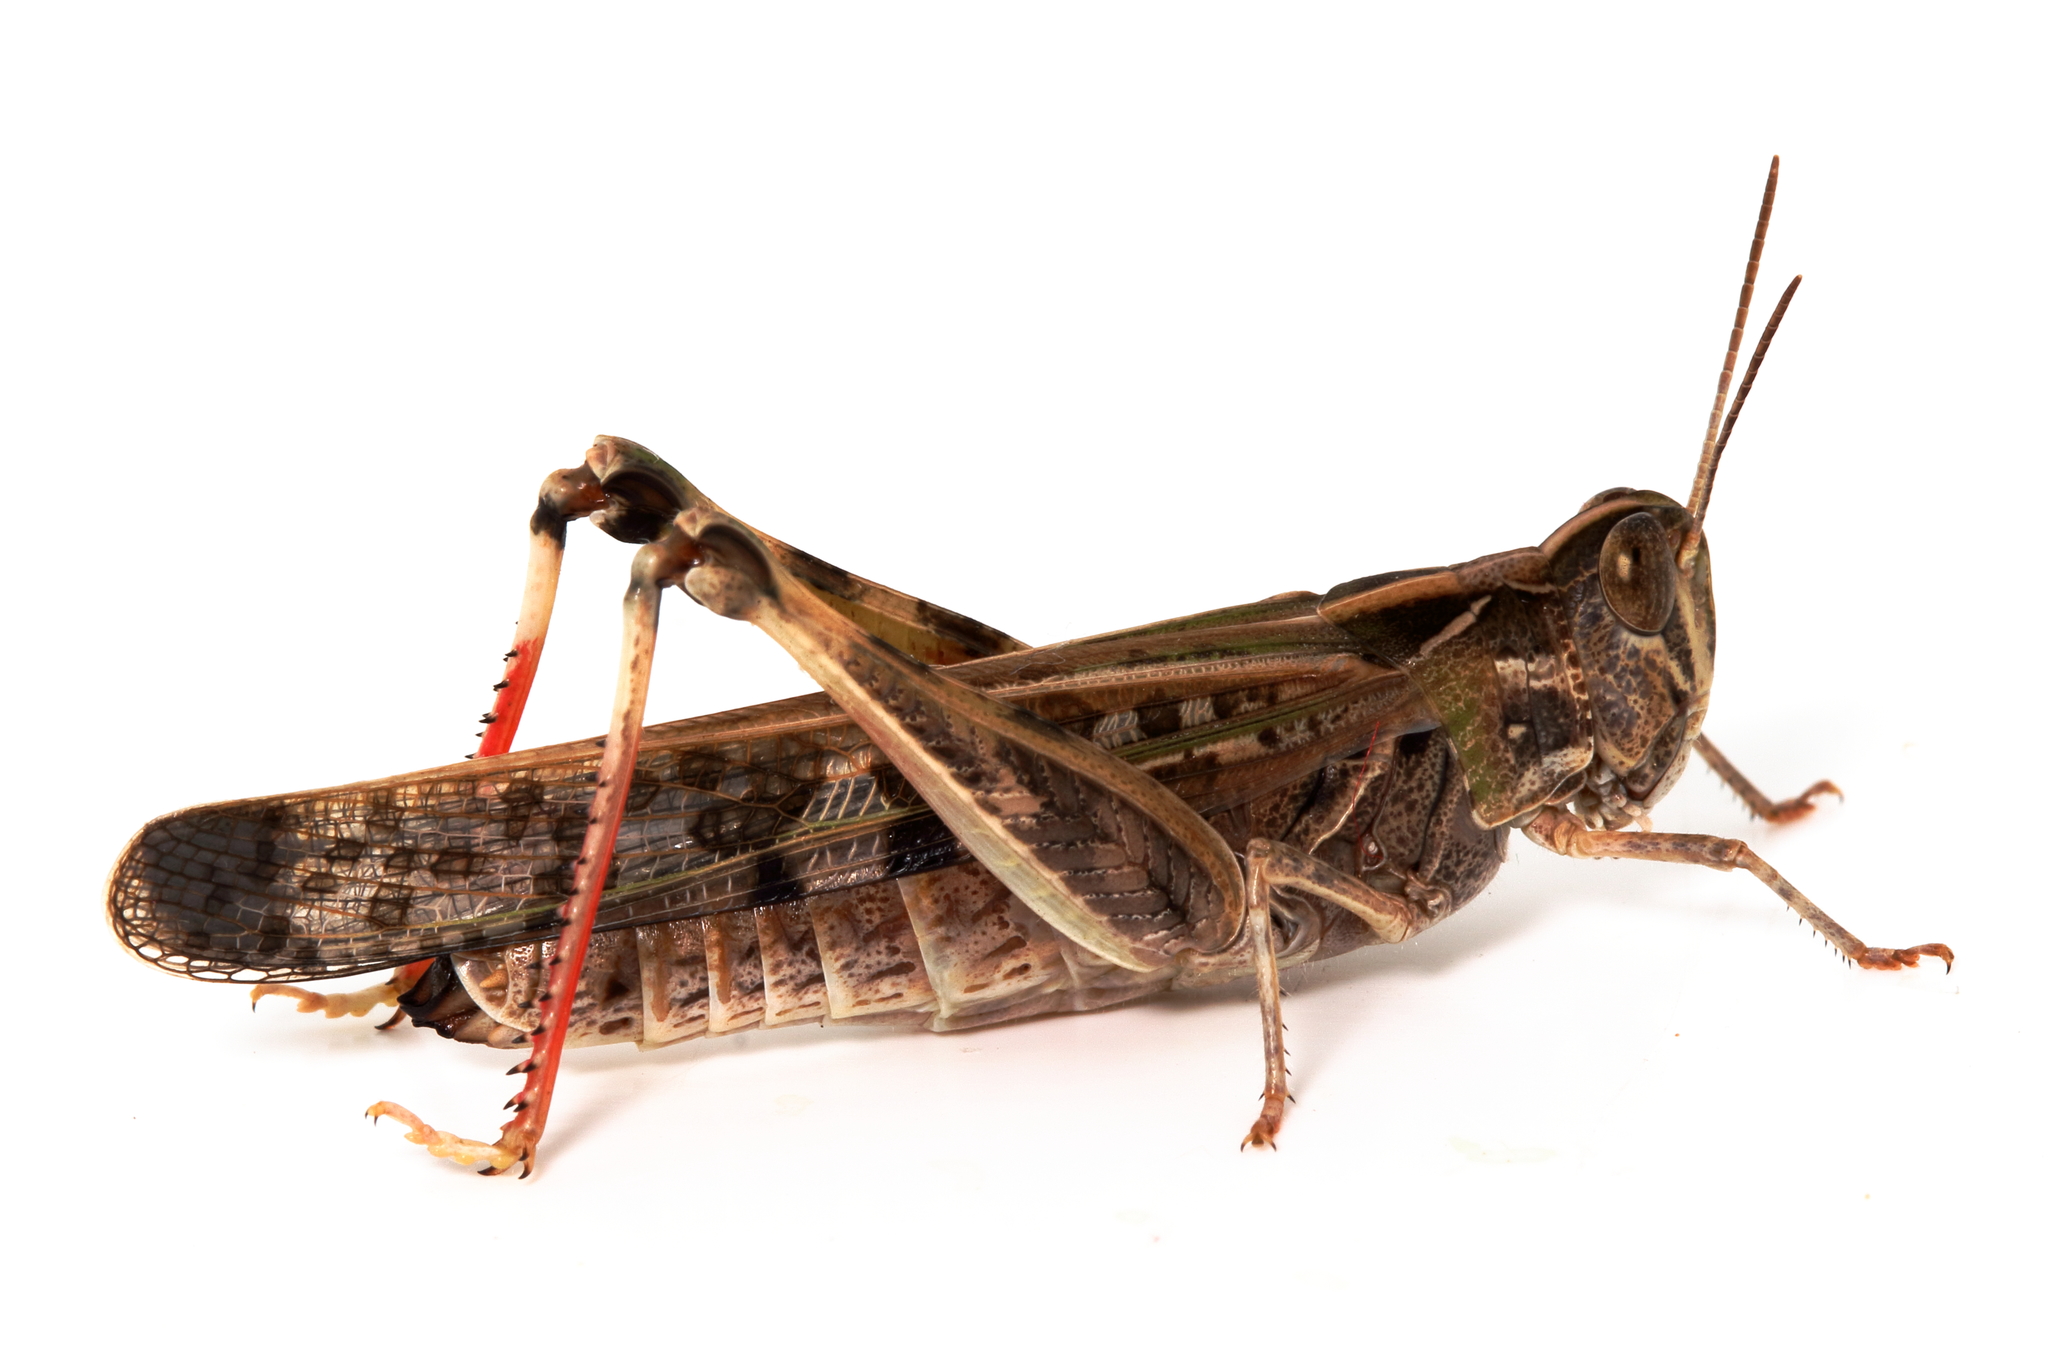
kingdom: Animalia
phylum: Arthropoda
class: Insecta
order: Orthoptera
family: Acrididae
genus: Chortoicetes
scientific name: Chortoicetes terminifera
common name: Australian plague locust
